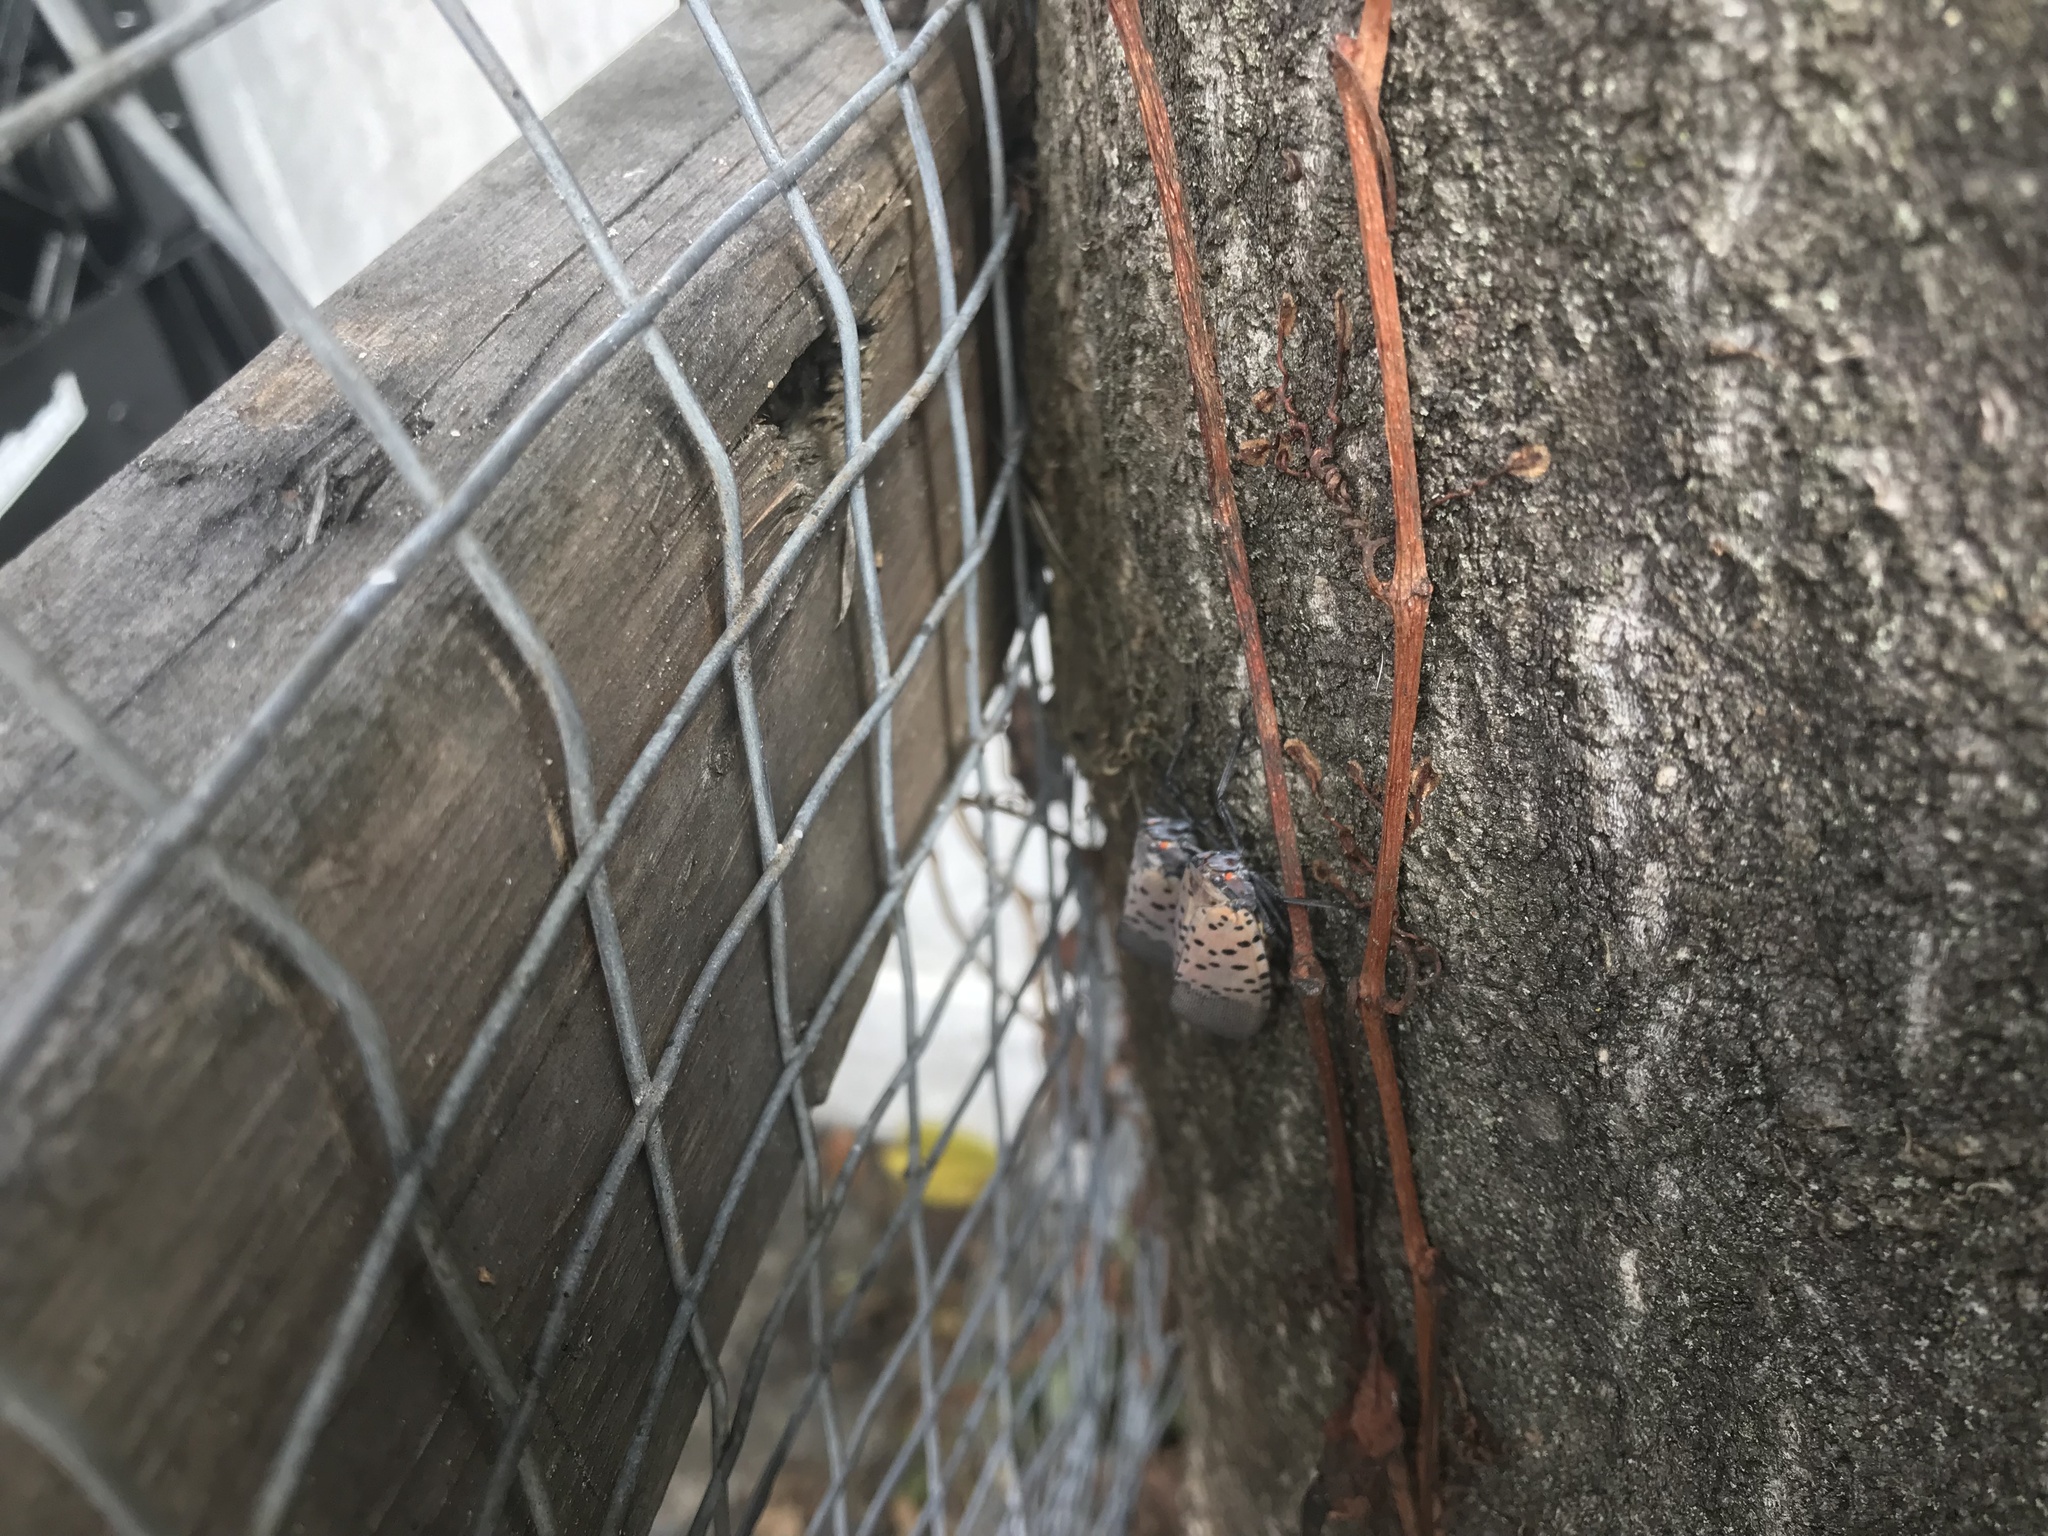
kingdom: Animalia
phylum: Arthropoda
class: Insecta
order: Hemiptera
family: Fulgoridae
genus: Lycorma
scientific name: Lycorma delicatula
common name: Spotted lanternfly
